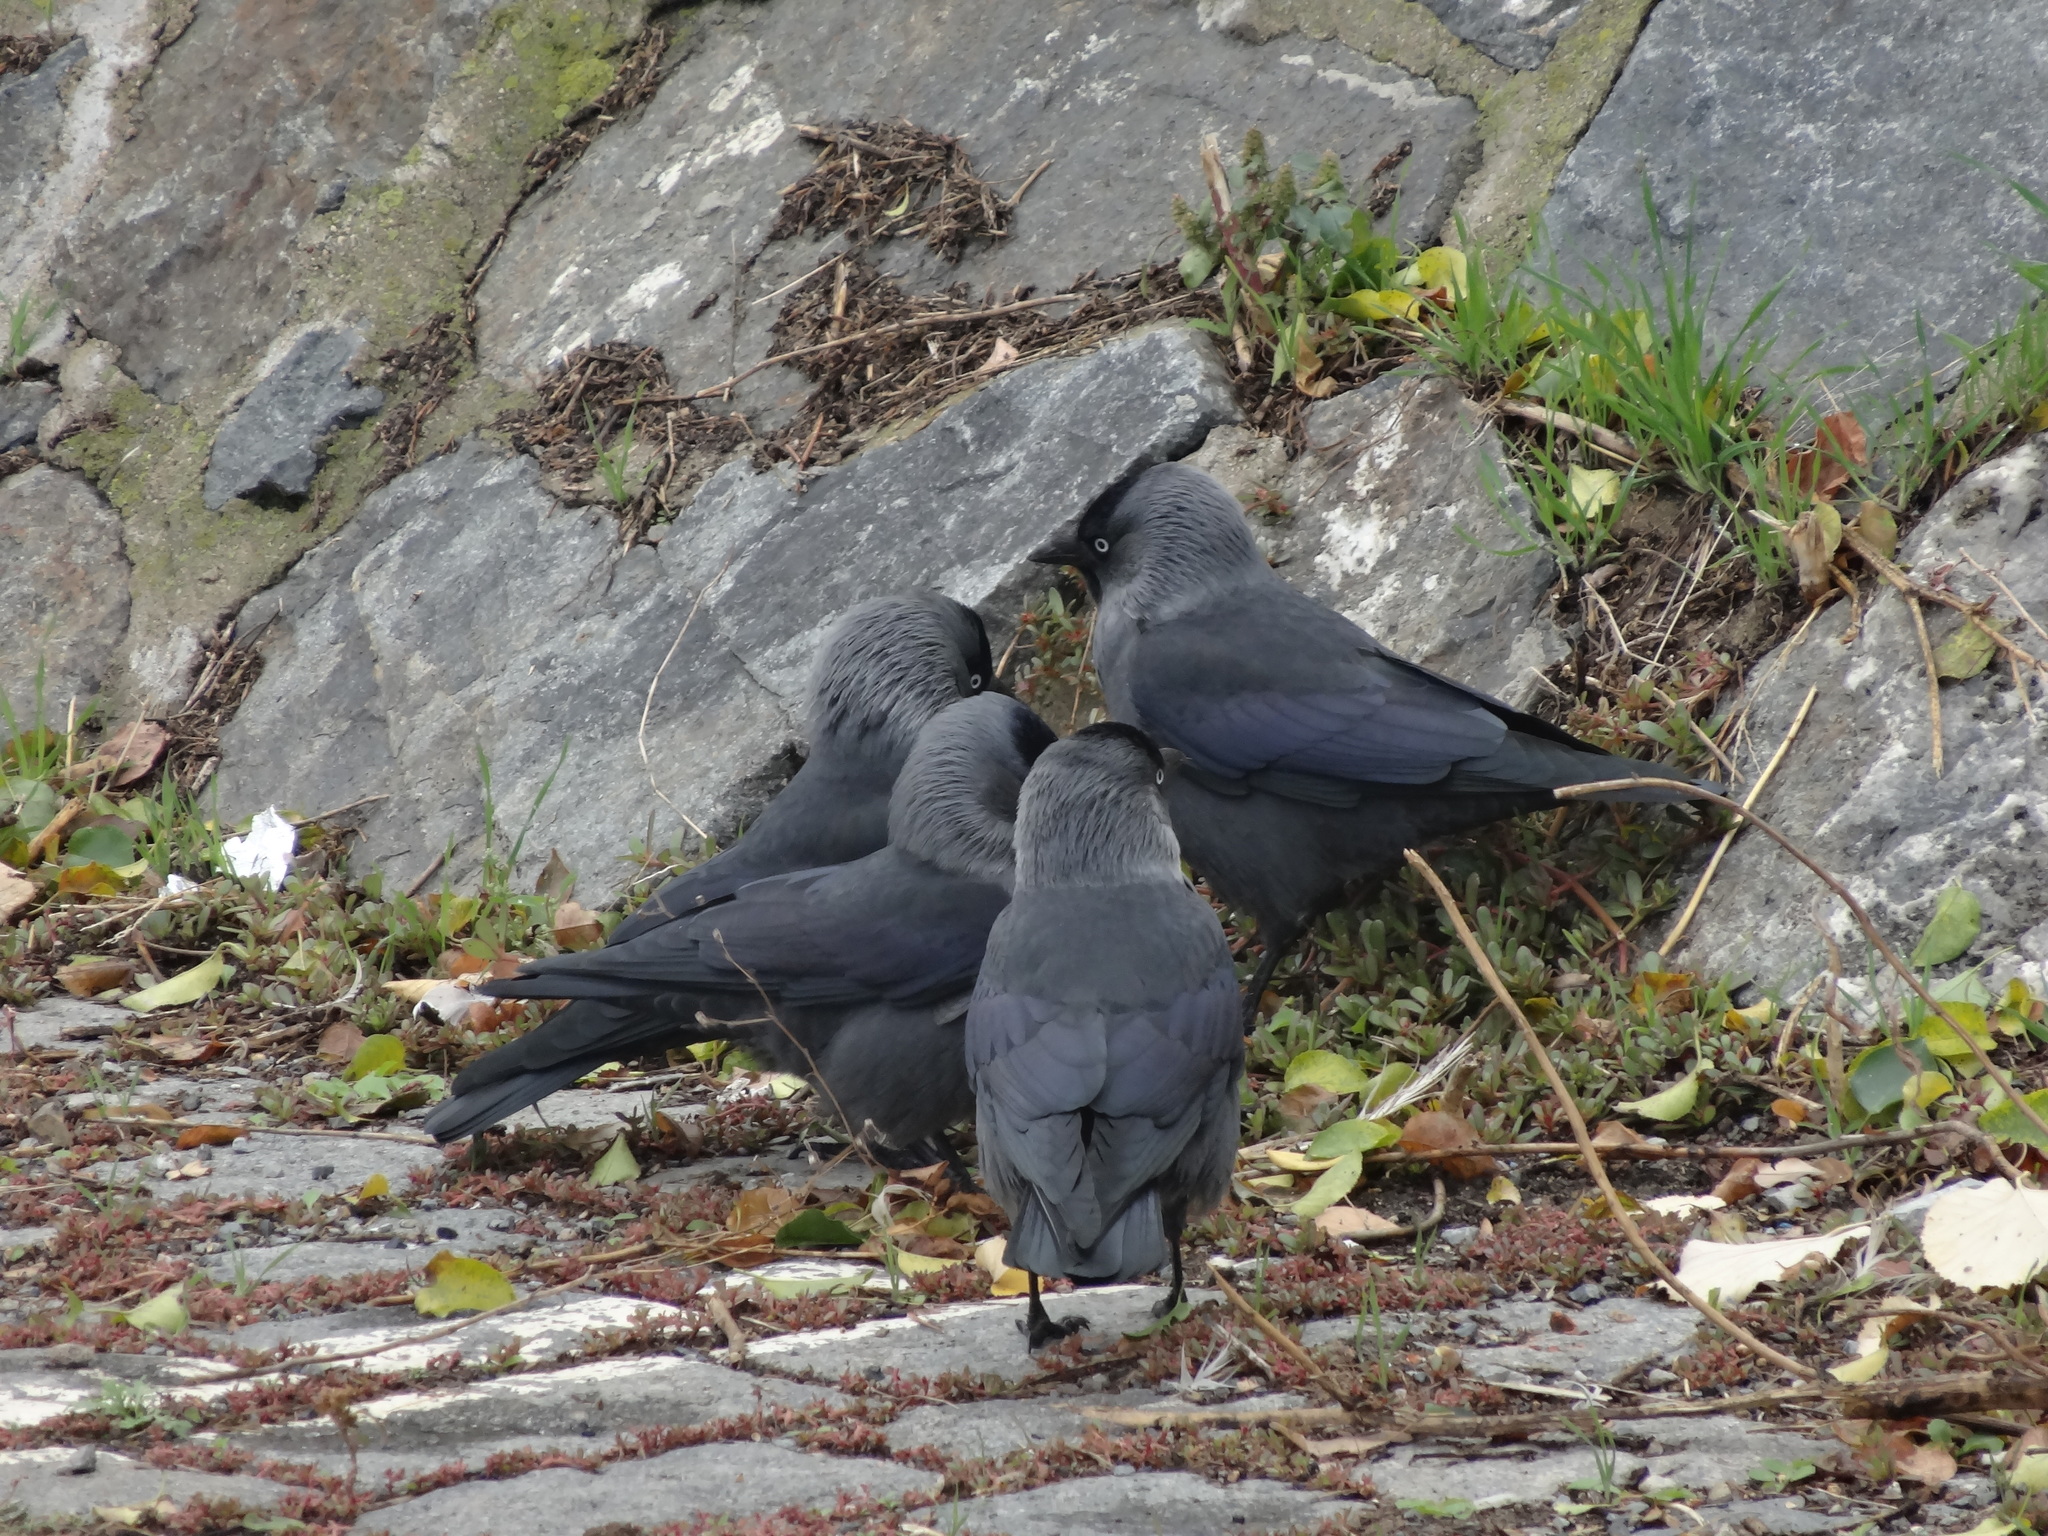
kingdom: Animalia
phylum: Chordata
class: Aves
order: Passeriformes
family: Corvidae
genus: Coloeus
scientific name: Coloeus monedula
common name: Western jackdaw
